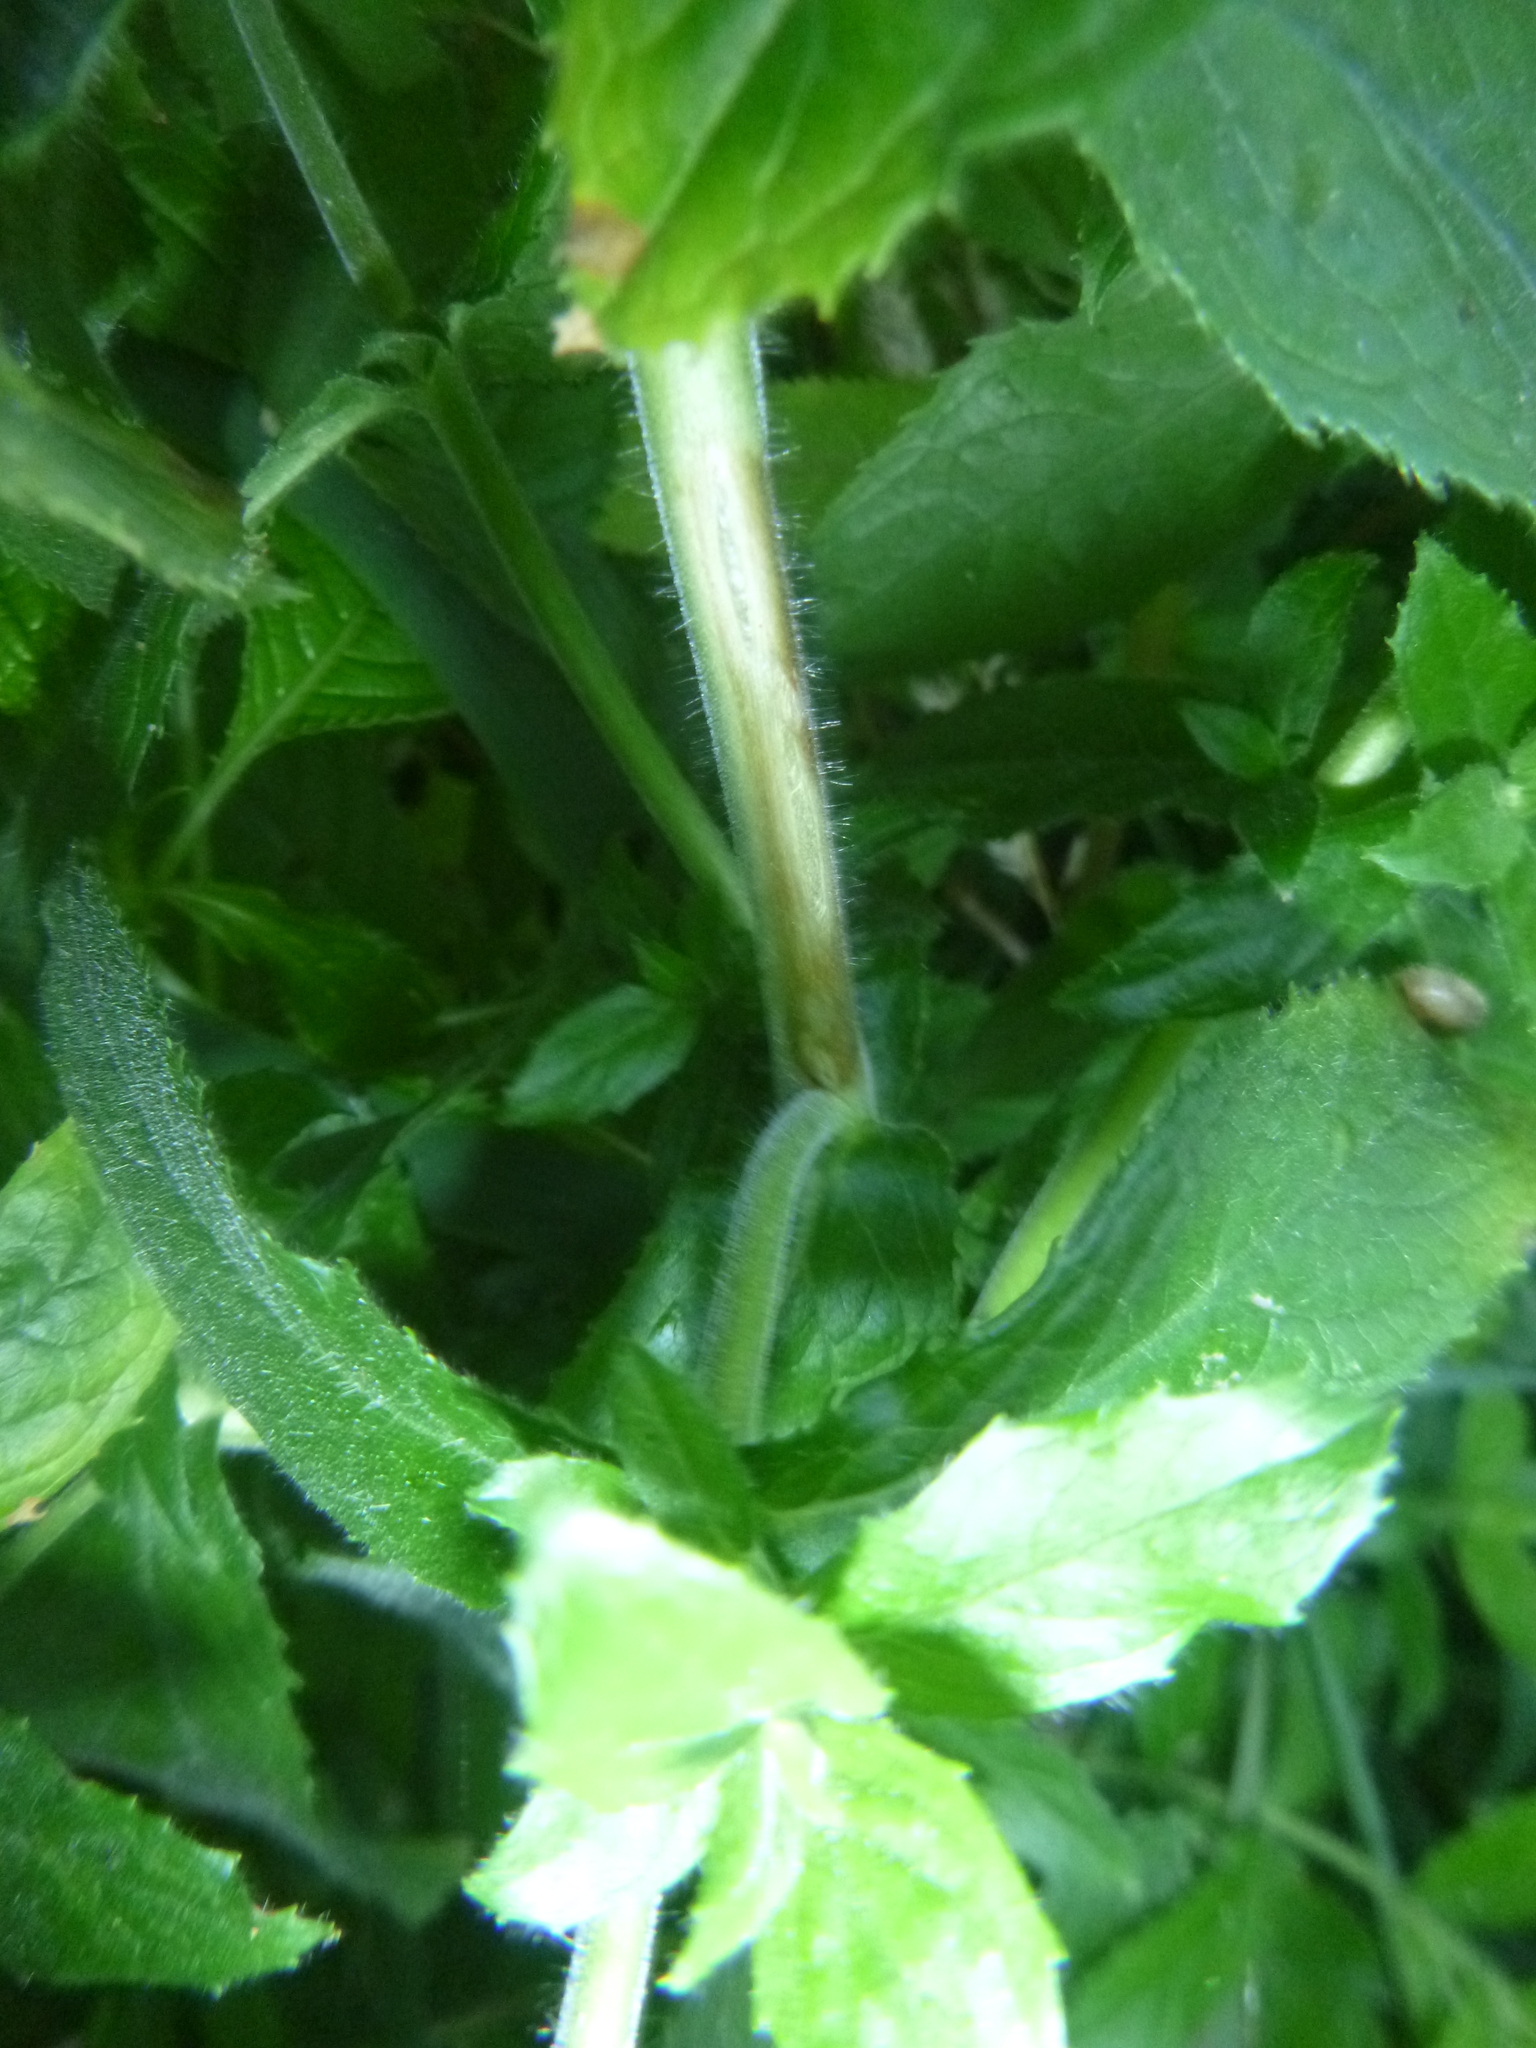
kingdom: Plantae
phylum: Tracheophyta
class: Magnoliopsida
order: Myrtales
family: Onagraceae
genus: Epilobium
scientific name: Epilobium hirsutum
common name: Great willowherb
